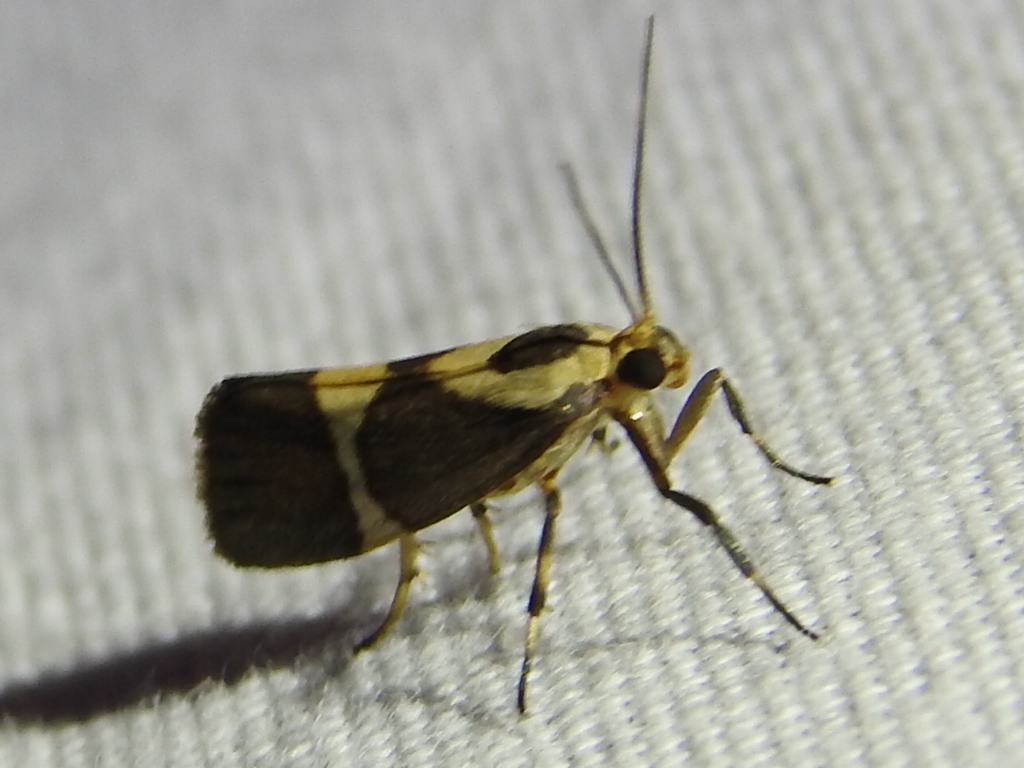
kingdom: Animalia
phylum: Arthropoda
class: Insecta
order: Lepidoptera
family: Erebidae
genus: Cisthene
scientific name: Cisthene subrufa
